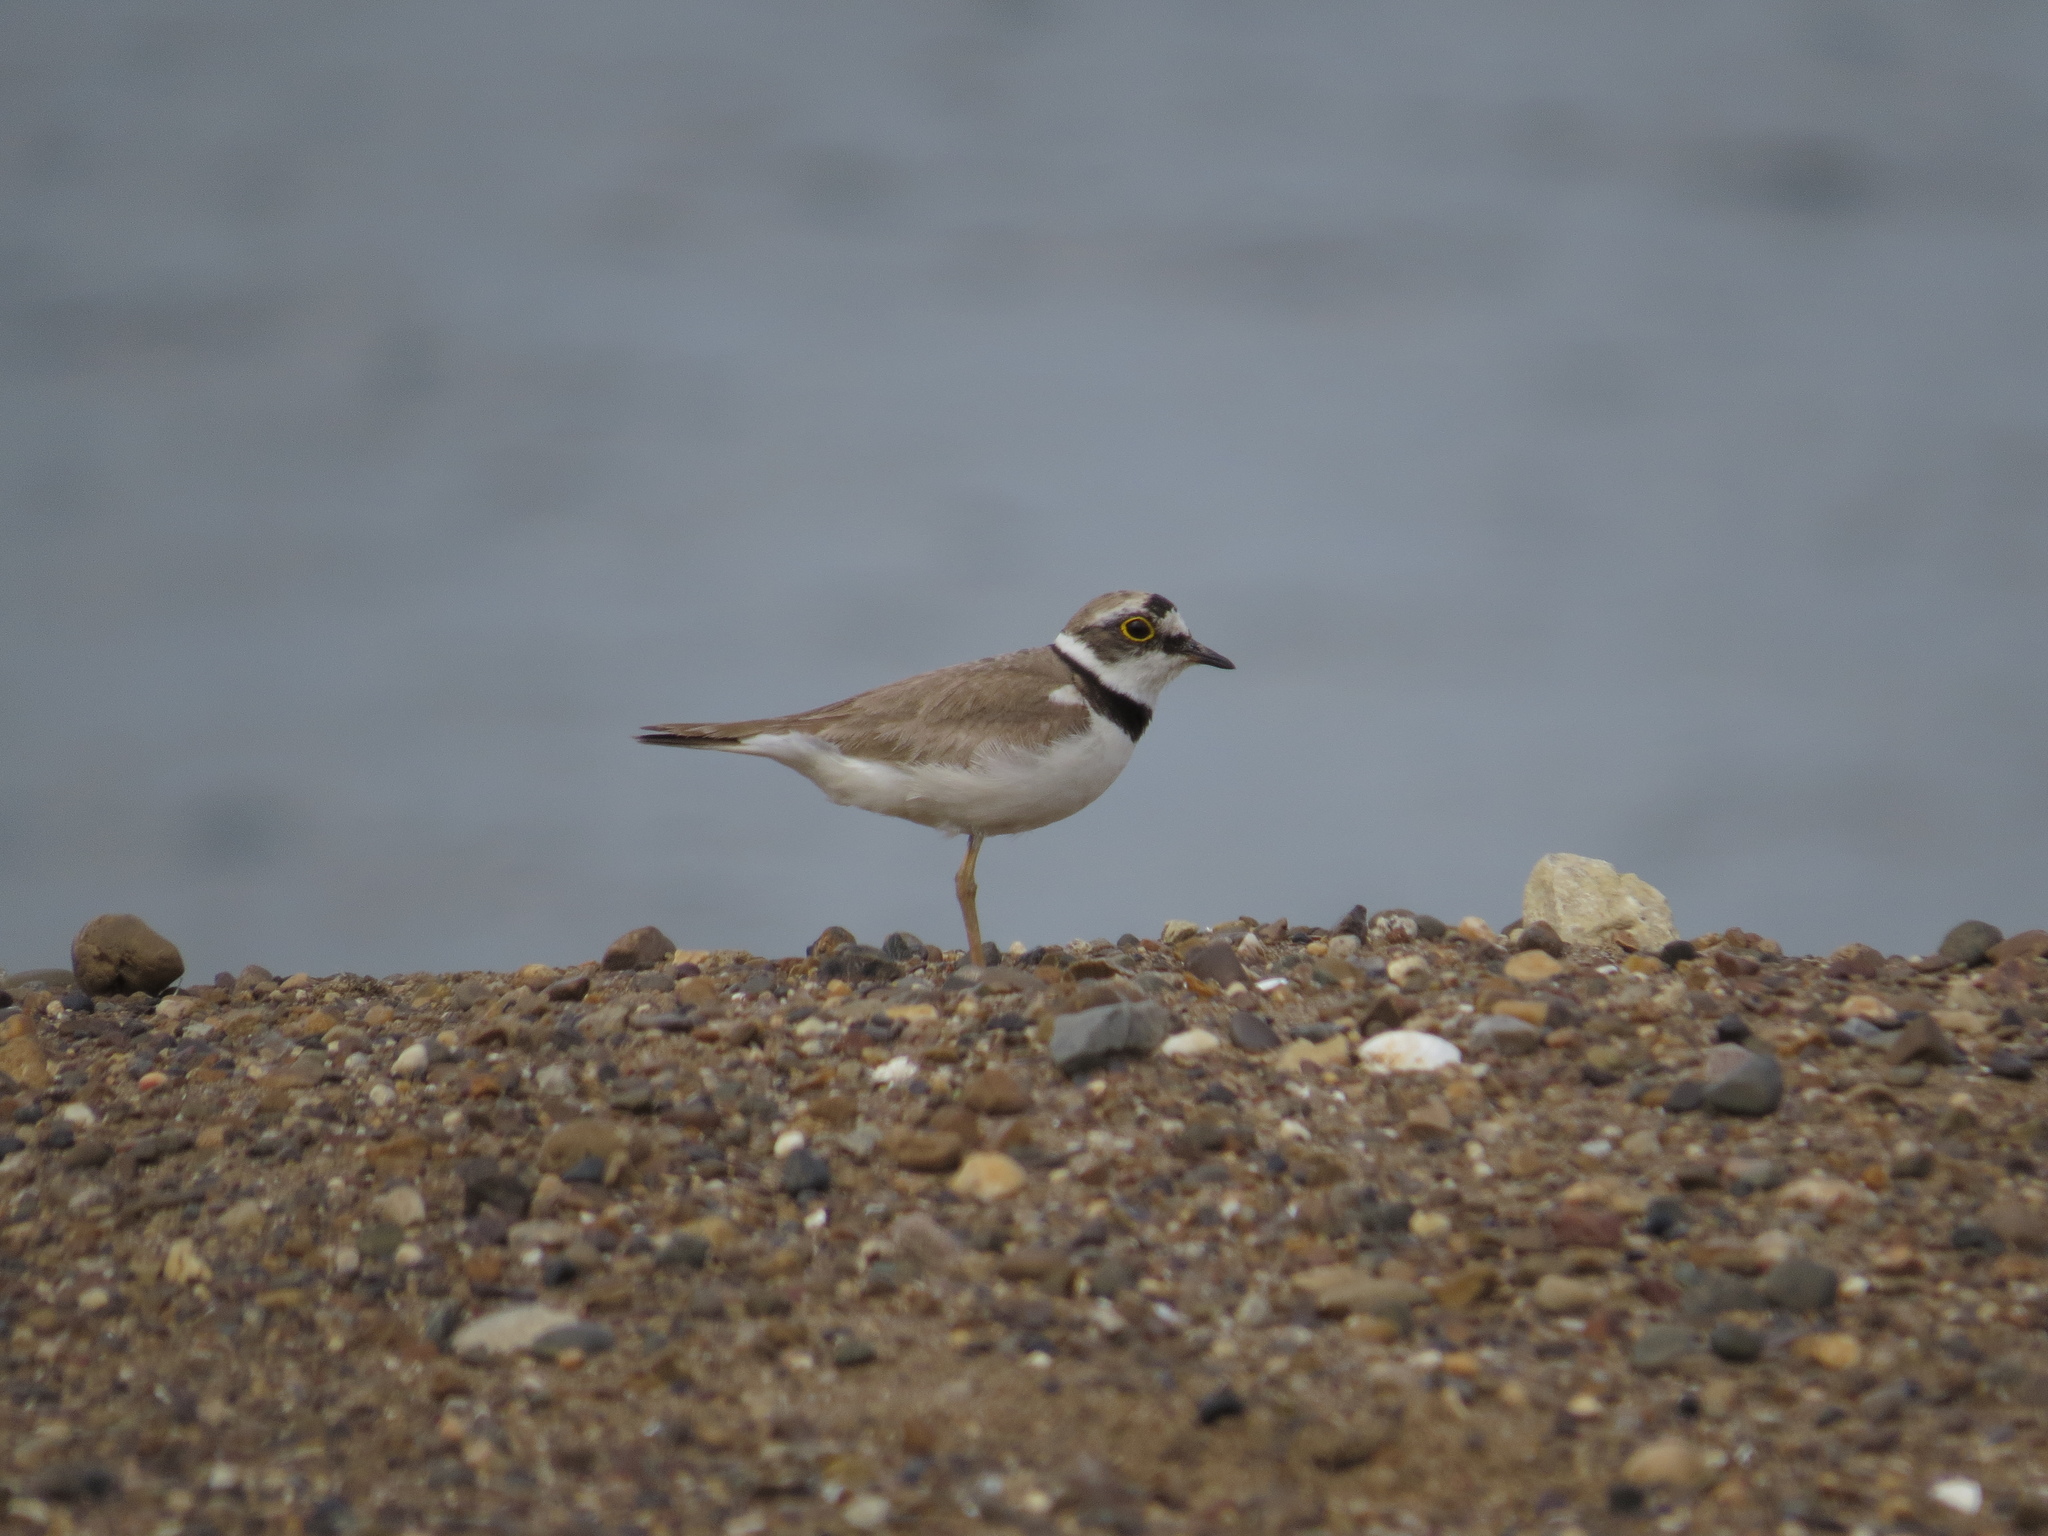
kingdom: Animalia
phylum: Chordata
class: Aves
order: Charadriiformes
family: Charadriidae
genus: Charadrius
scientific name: Charadrius dubius
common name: Little ringed plover
